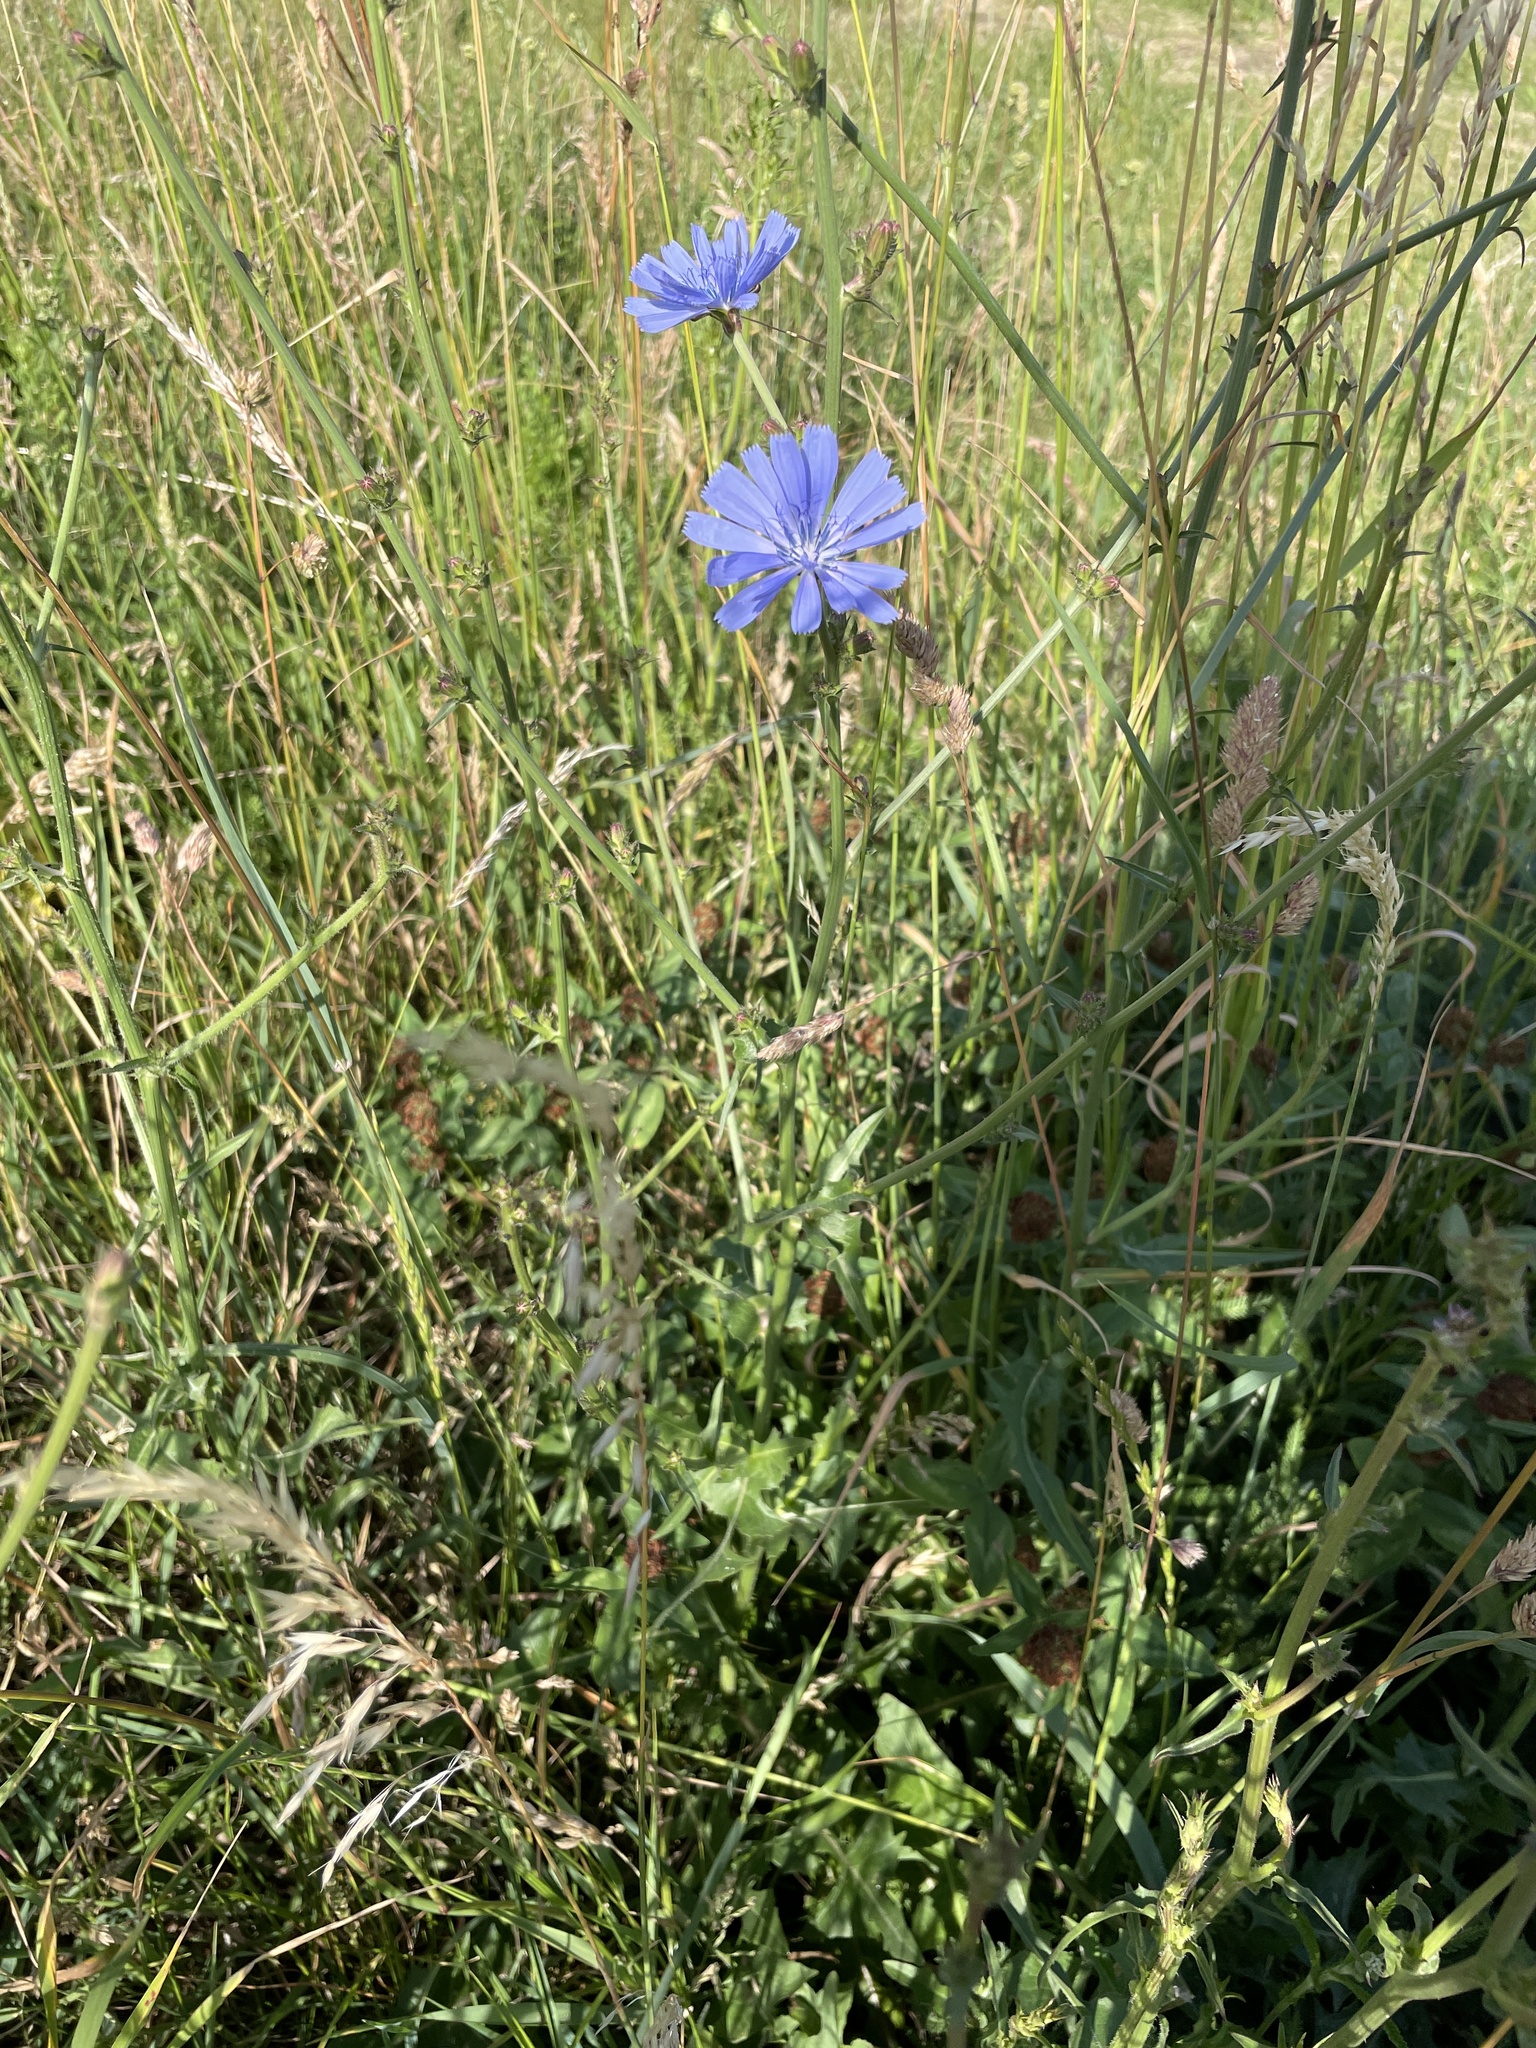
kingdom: Plantae
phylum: Tracheophyta
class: Magnoliopsida
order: Asterales
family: Asteraceae
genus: Cichorium
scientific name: Cichorium intybus
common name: Chicory
